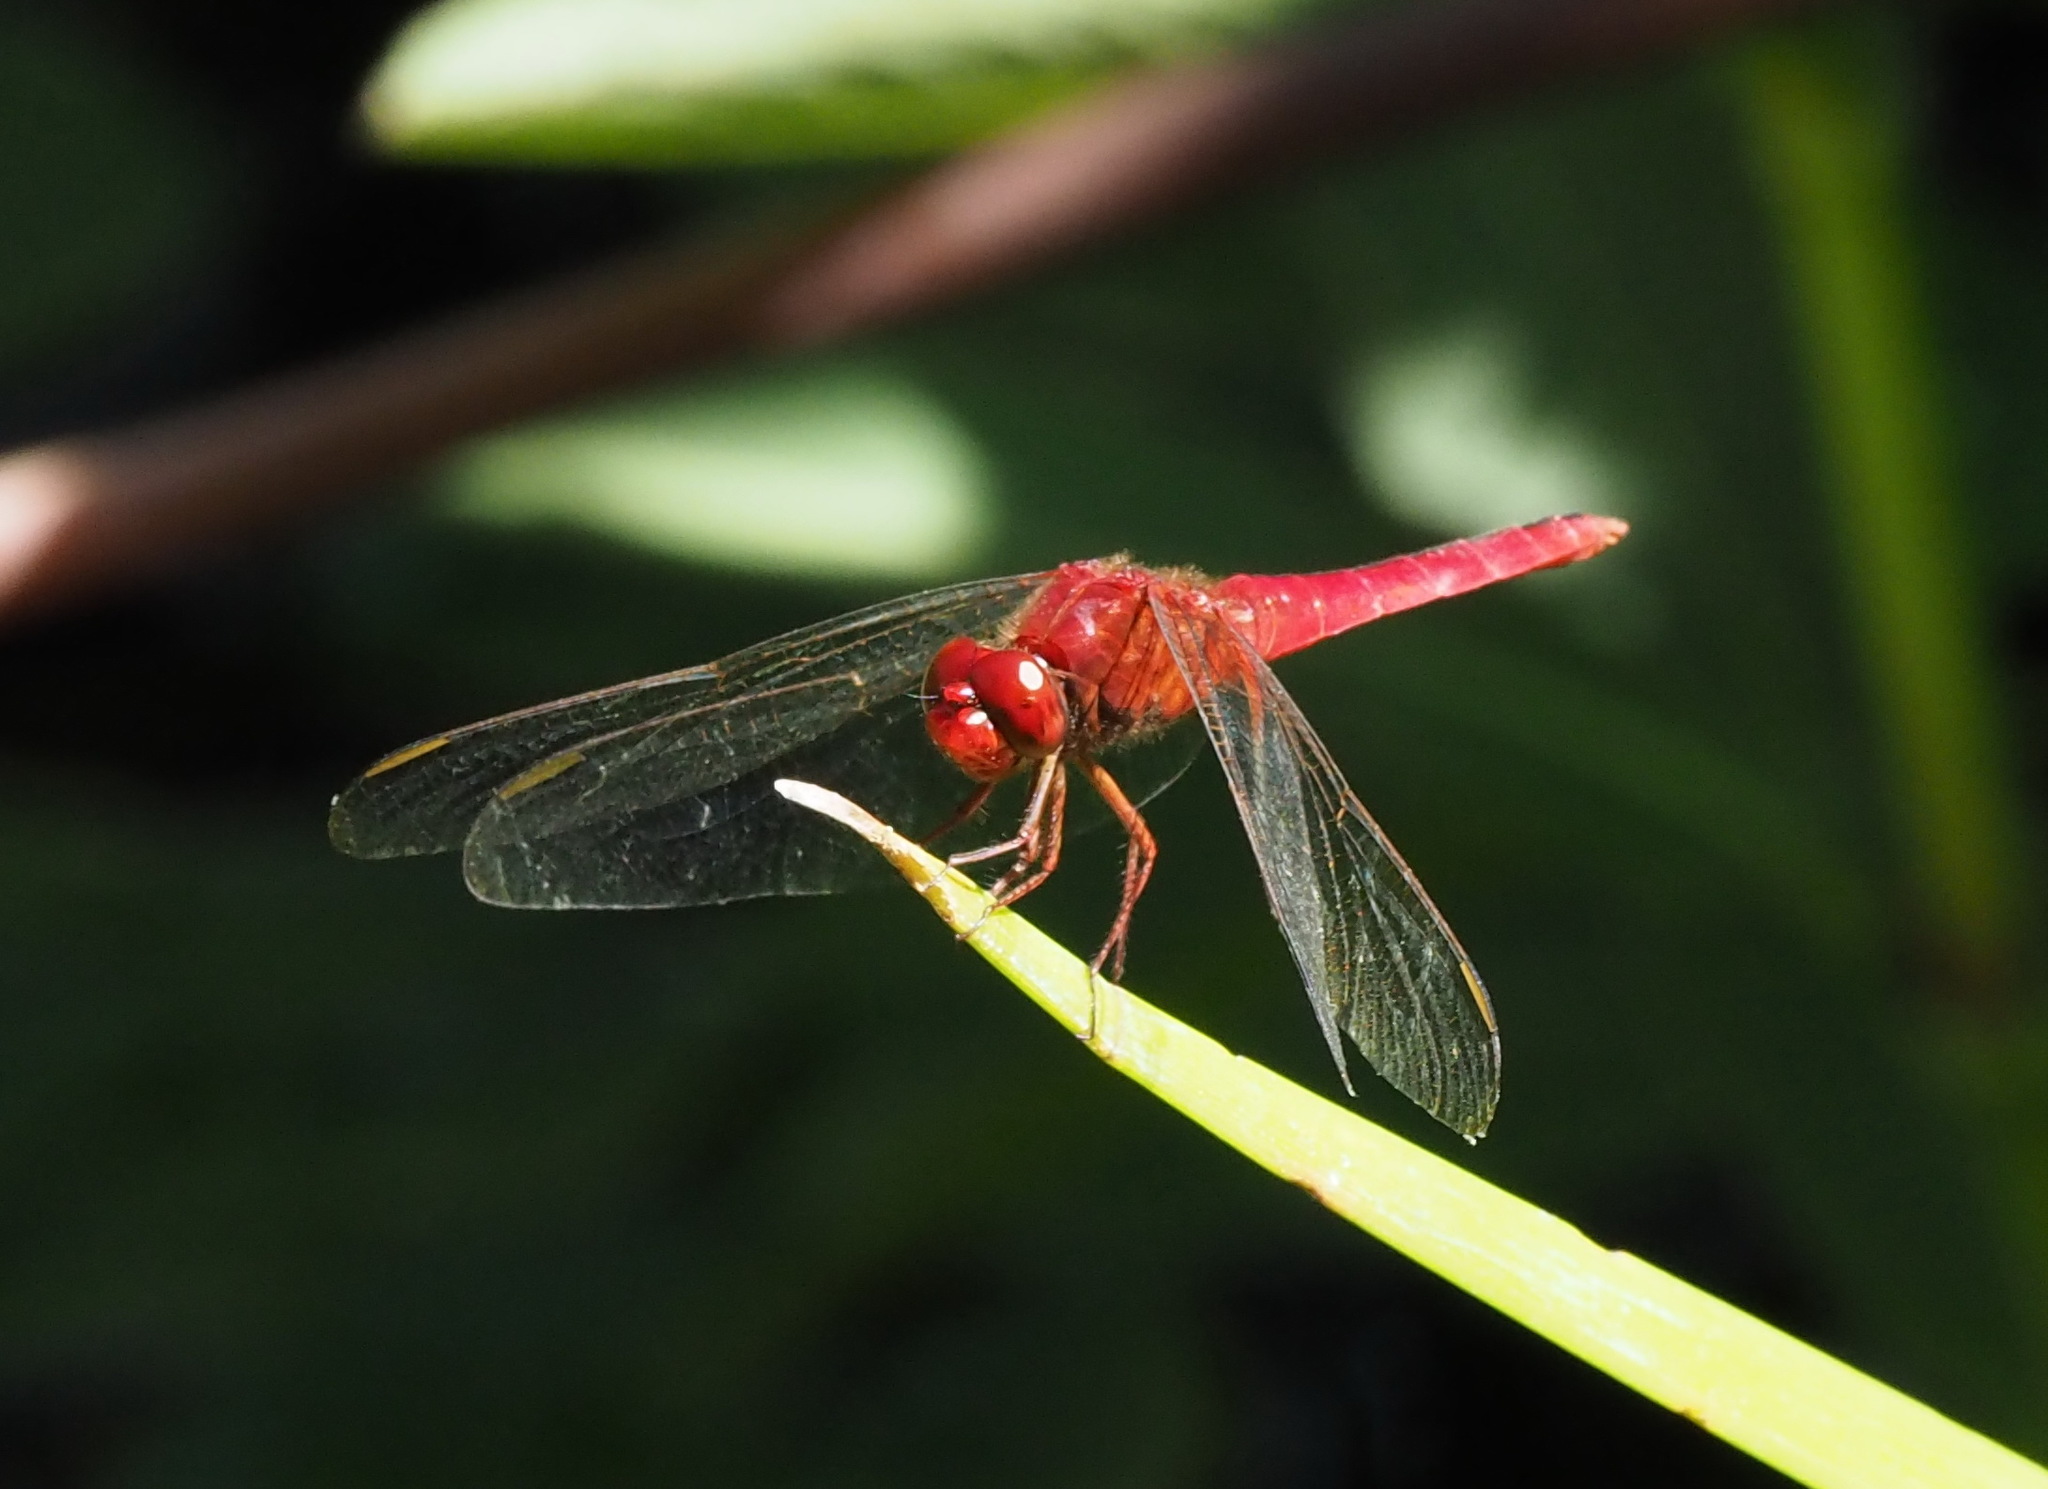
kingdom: Animalia
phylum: Arthropoda
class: Insecta
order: Odonata
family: Libellulidae
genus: Crocothemis
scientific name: Crocothemis servilia
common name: Scarlet skimmer
